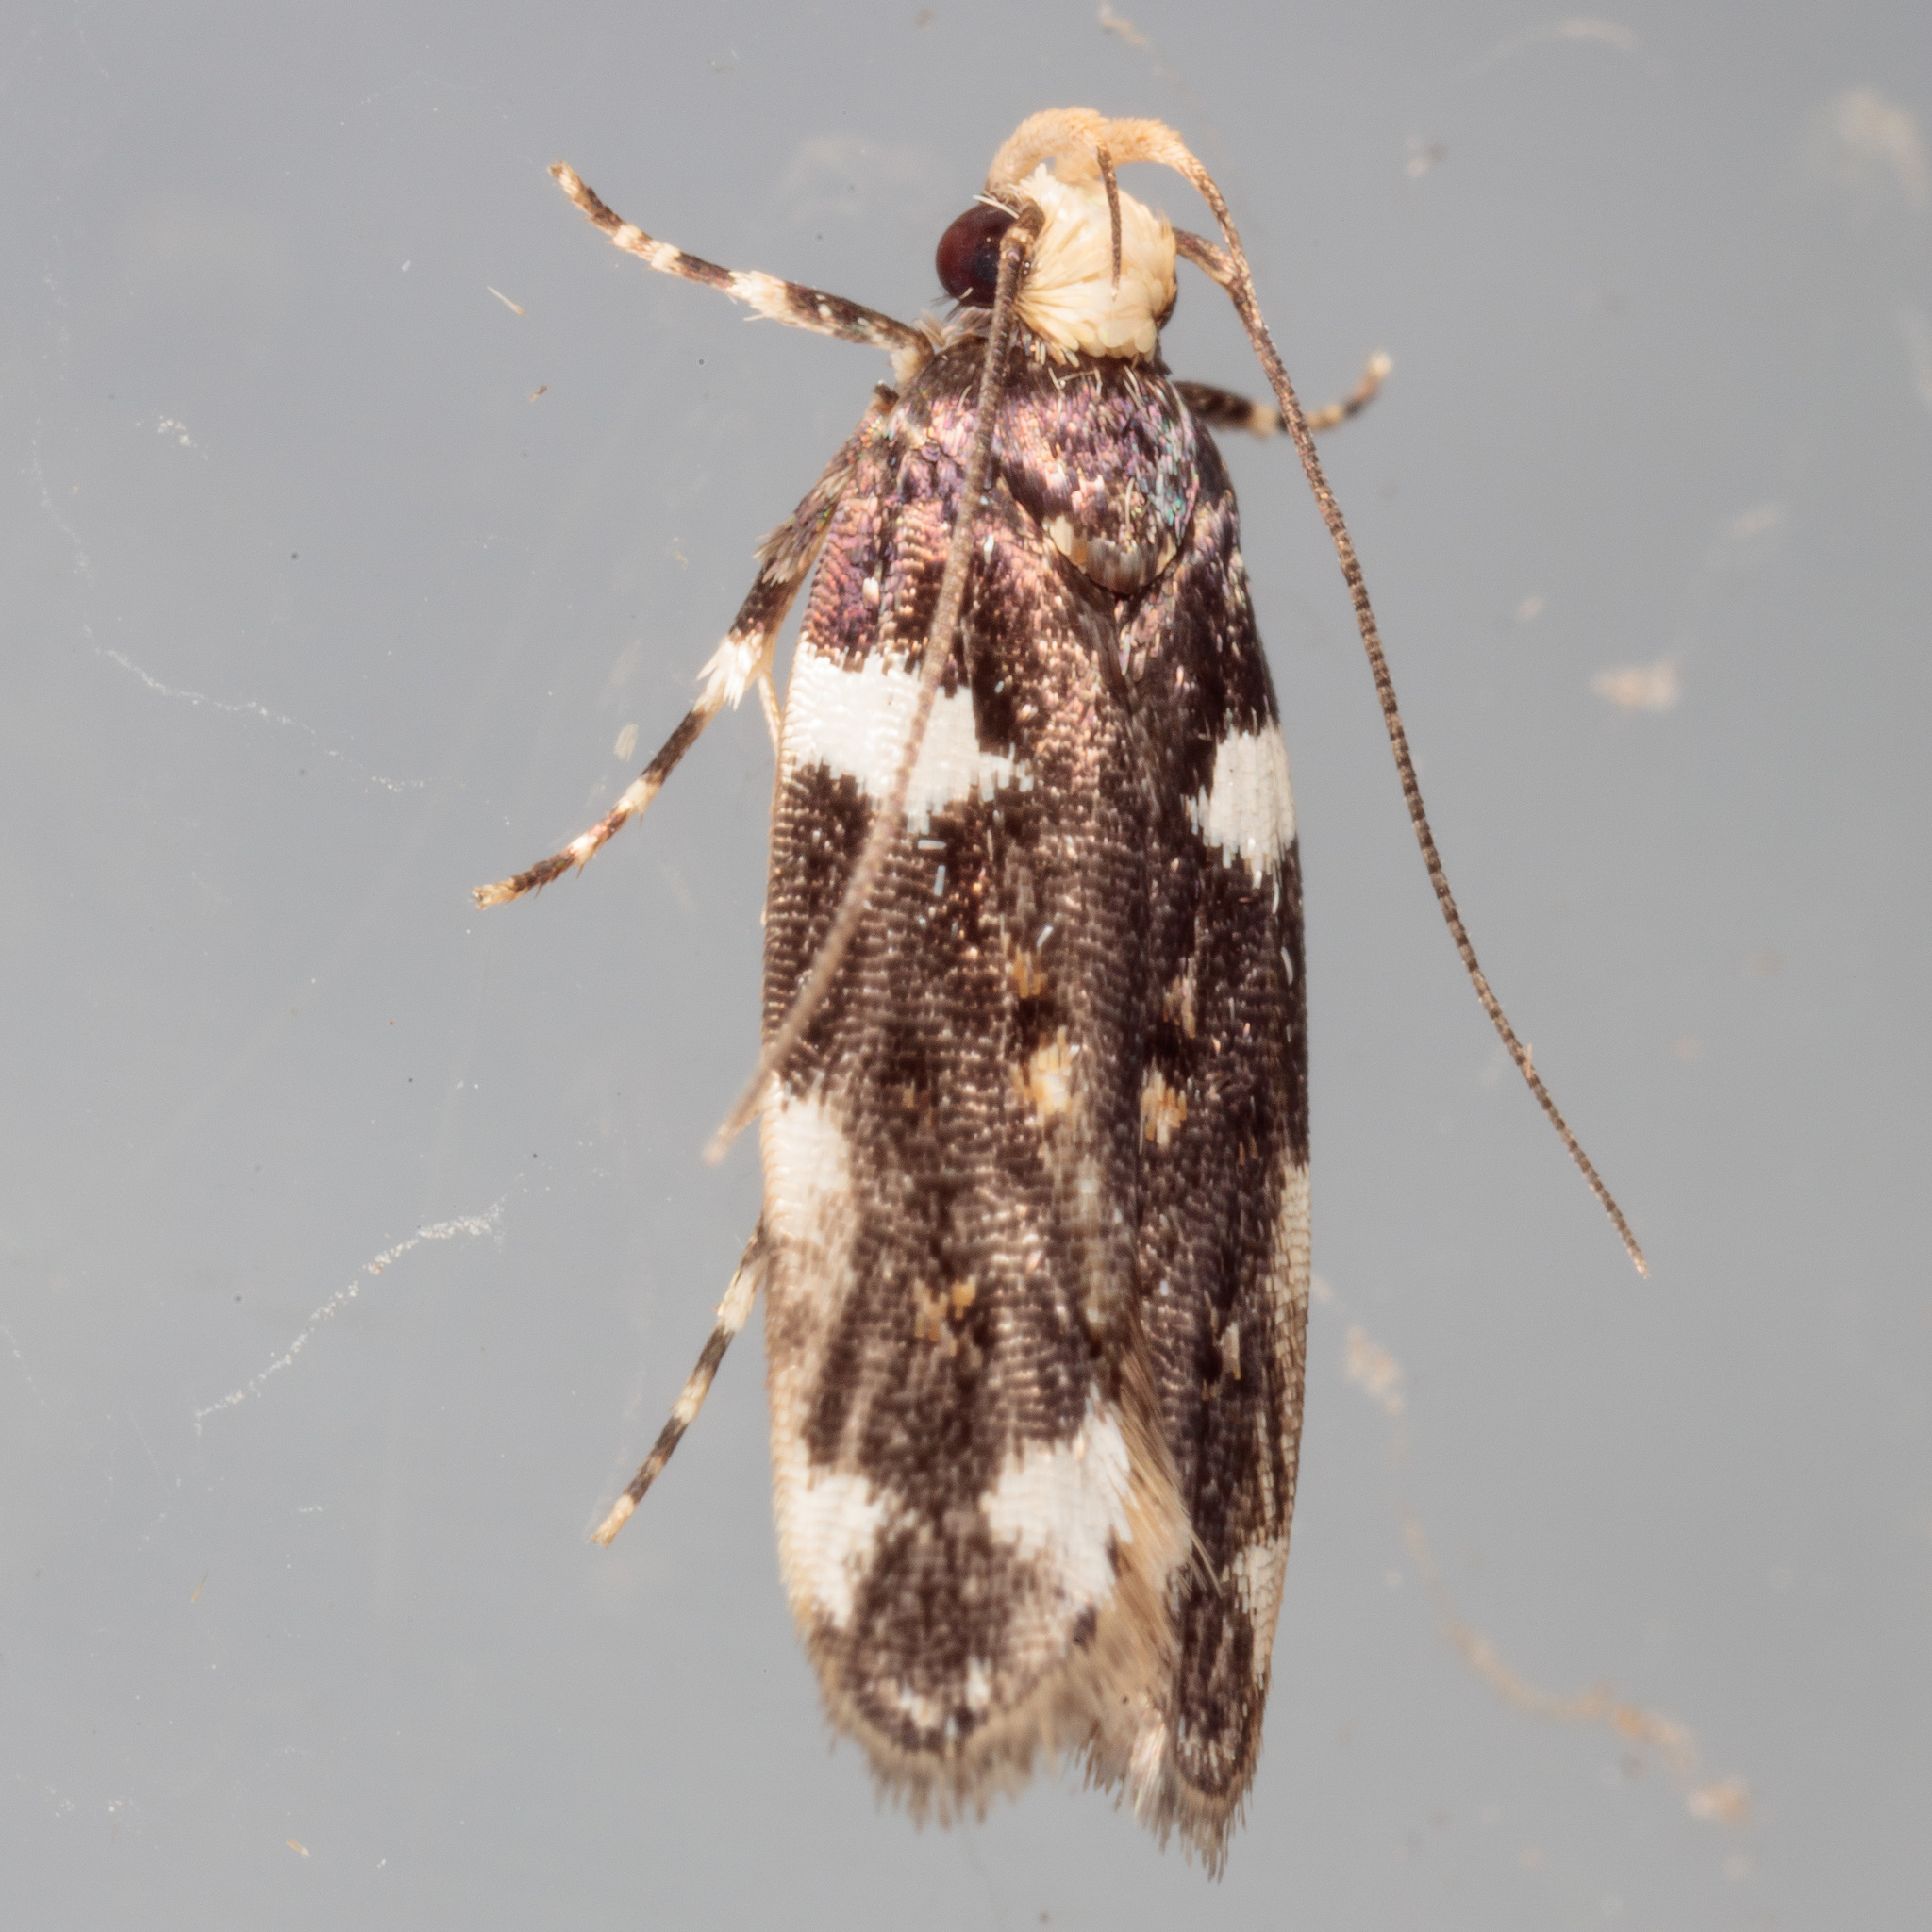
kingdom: Animalia
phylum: Arthropoda
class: Insecta
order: Lepidoptera
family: Gelechiidae
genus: Fascista
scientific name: Fascista cercerisella
